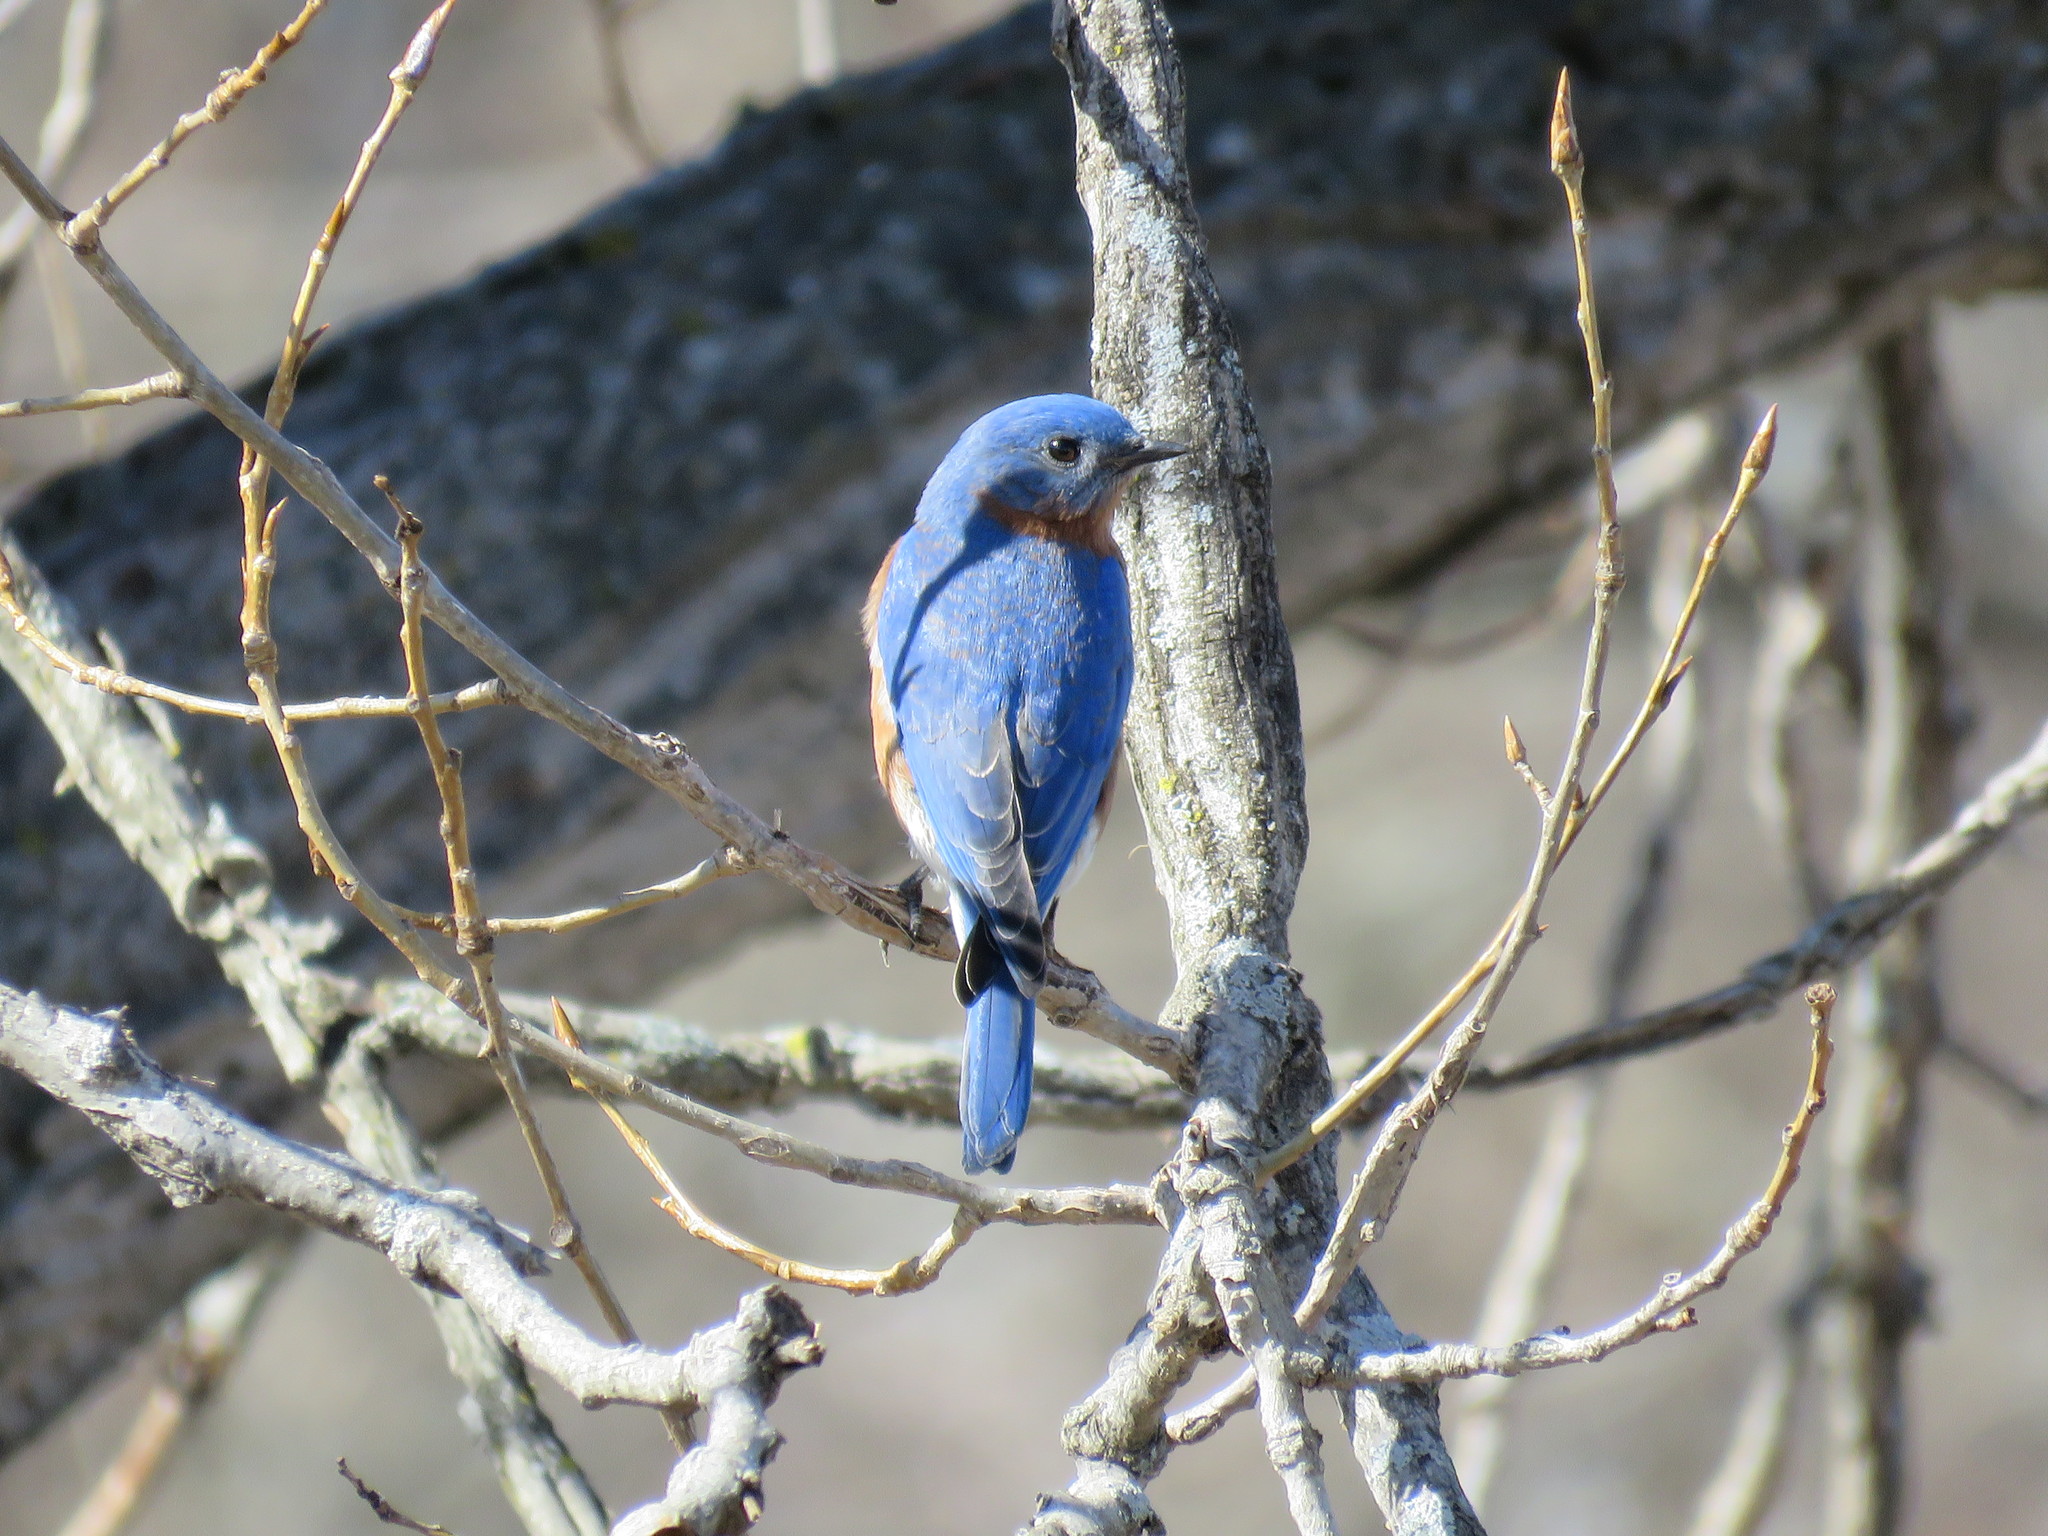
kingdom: Animalia
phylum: Chordata
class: Aves
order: Passeriformes
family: Turdidae
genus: Sialia
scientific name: Sialia sialis
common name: Eastern bluebird
